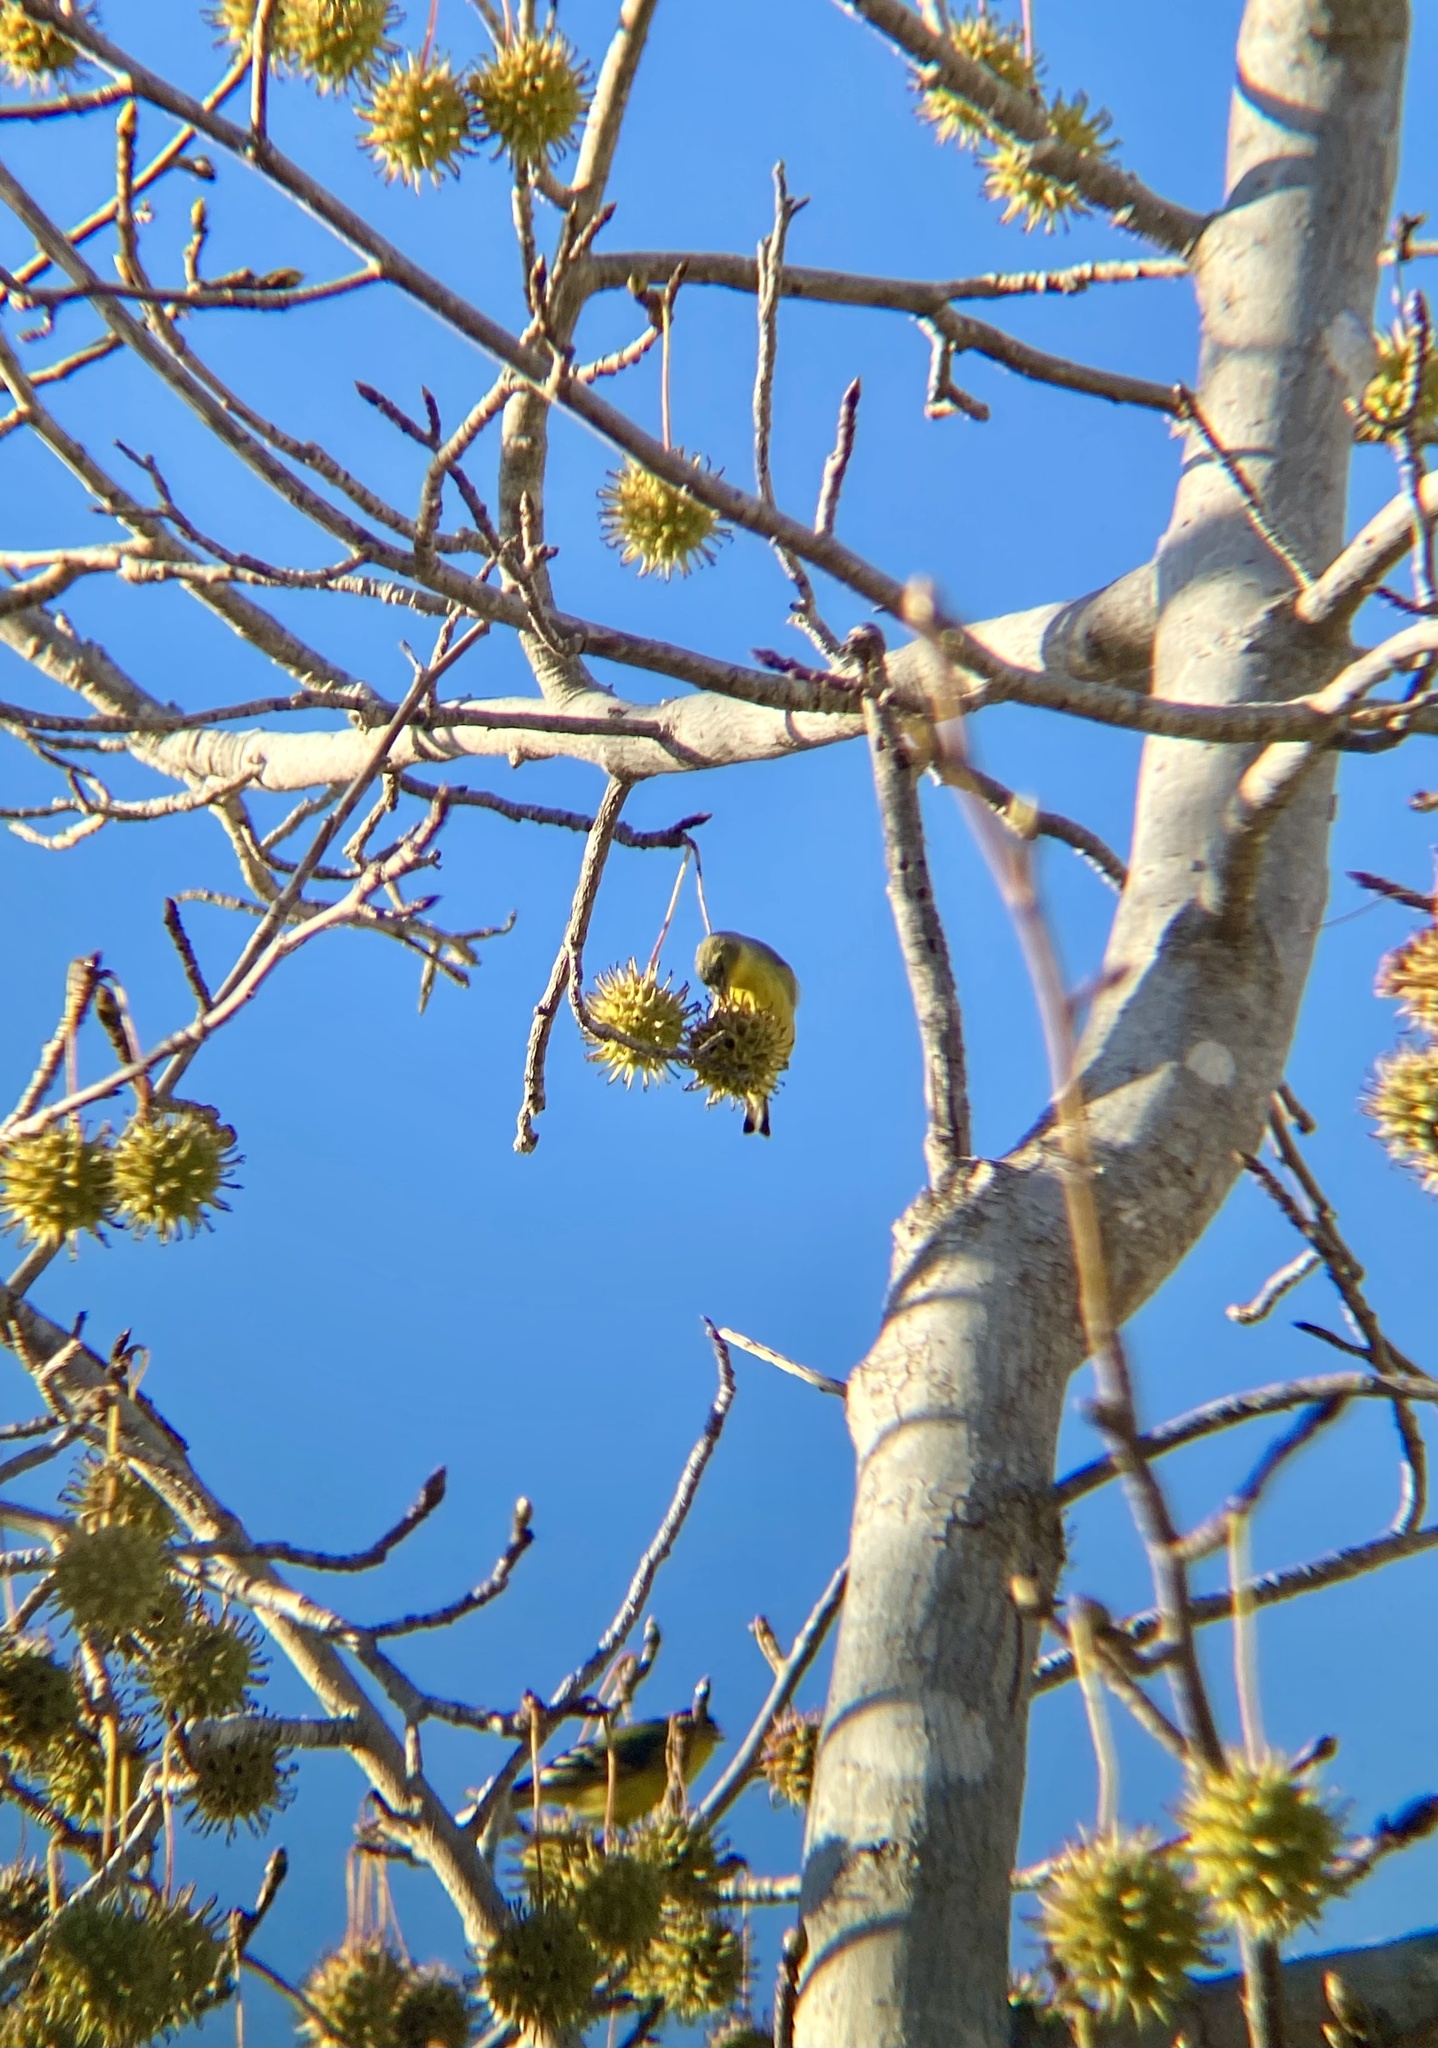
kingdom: Animalia
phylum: Chordata
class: Aves
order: Passeriformes
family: Fringillidae
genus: Spinus
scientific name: Spinus psaltria
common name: Lesser goldfinch
